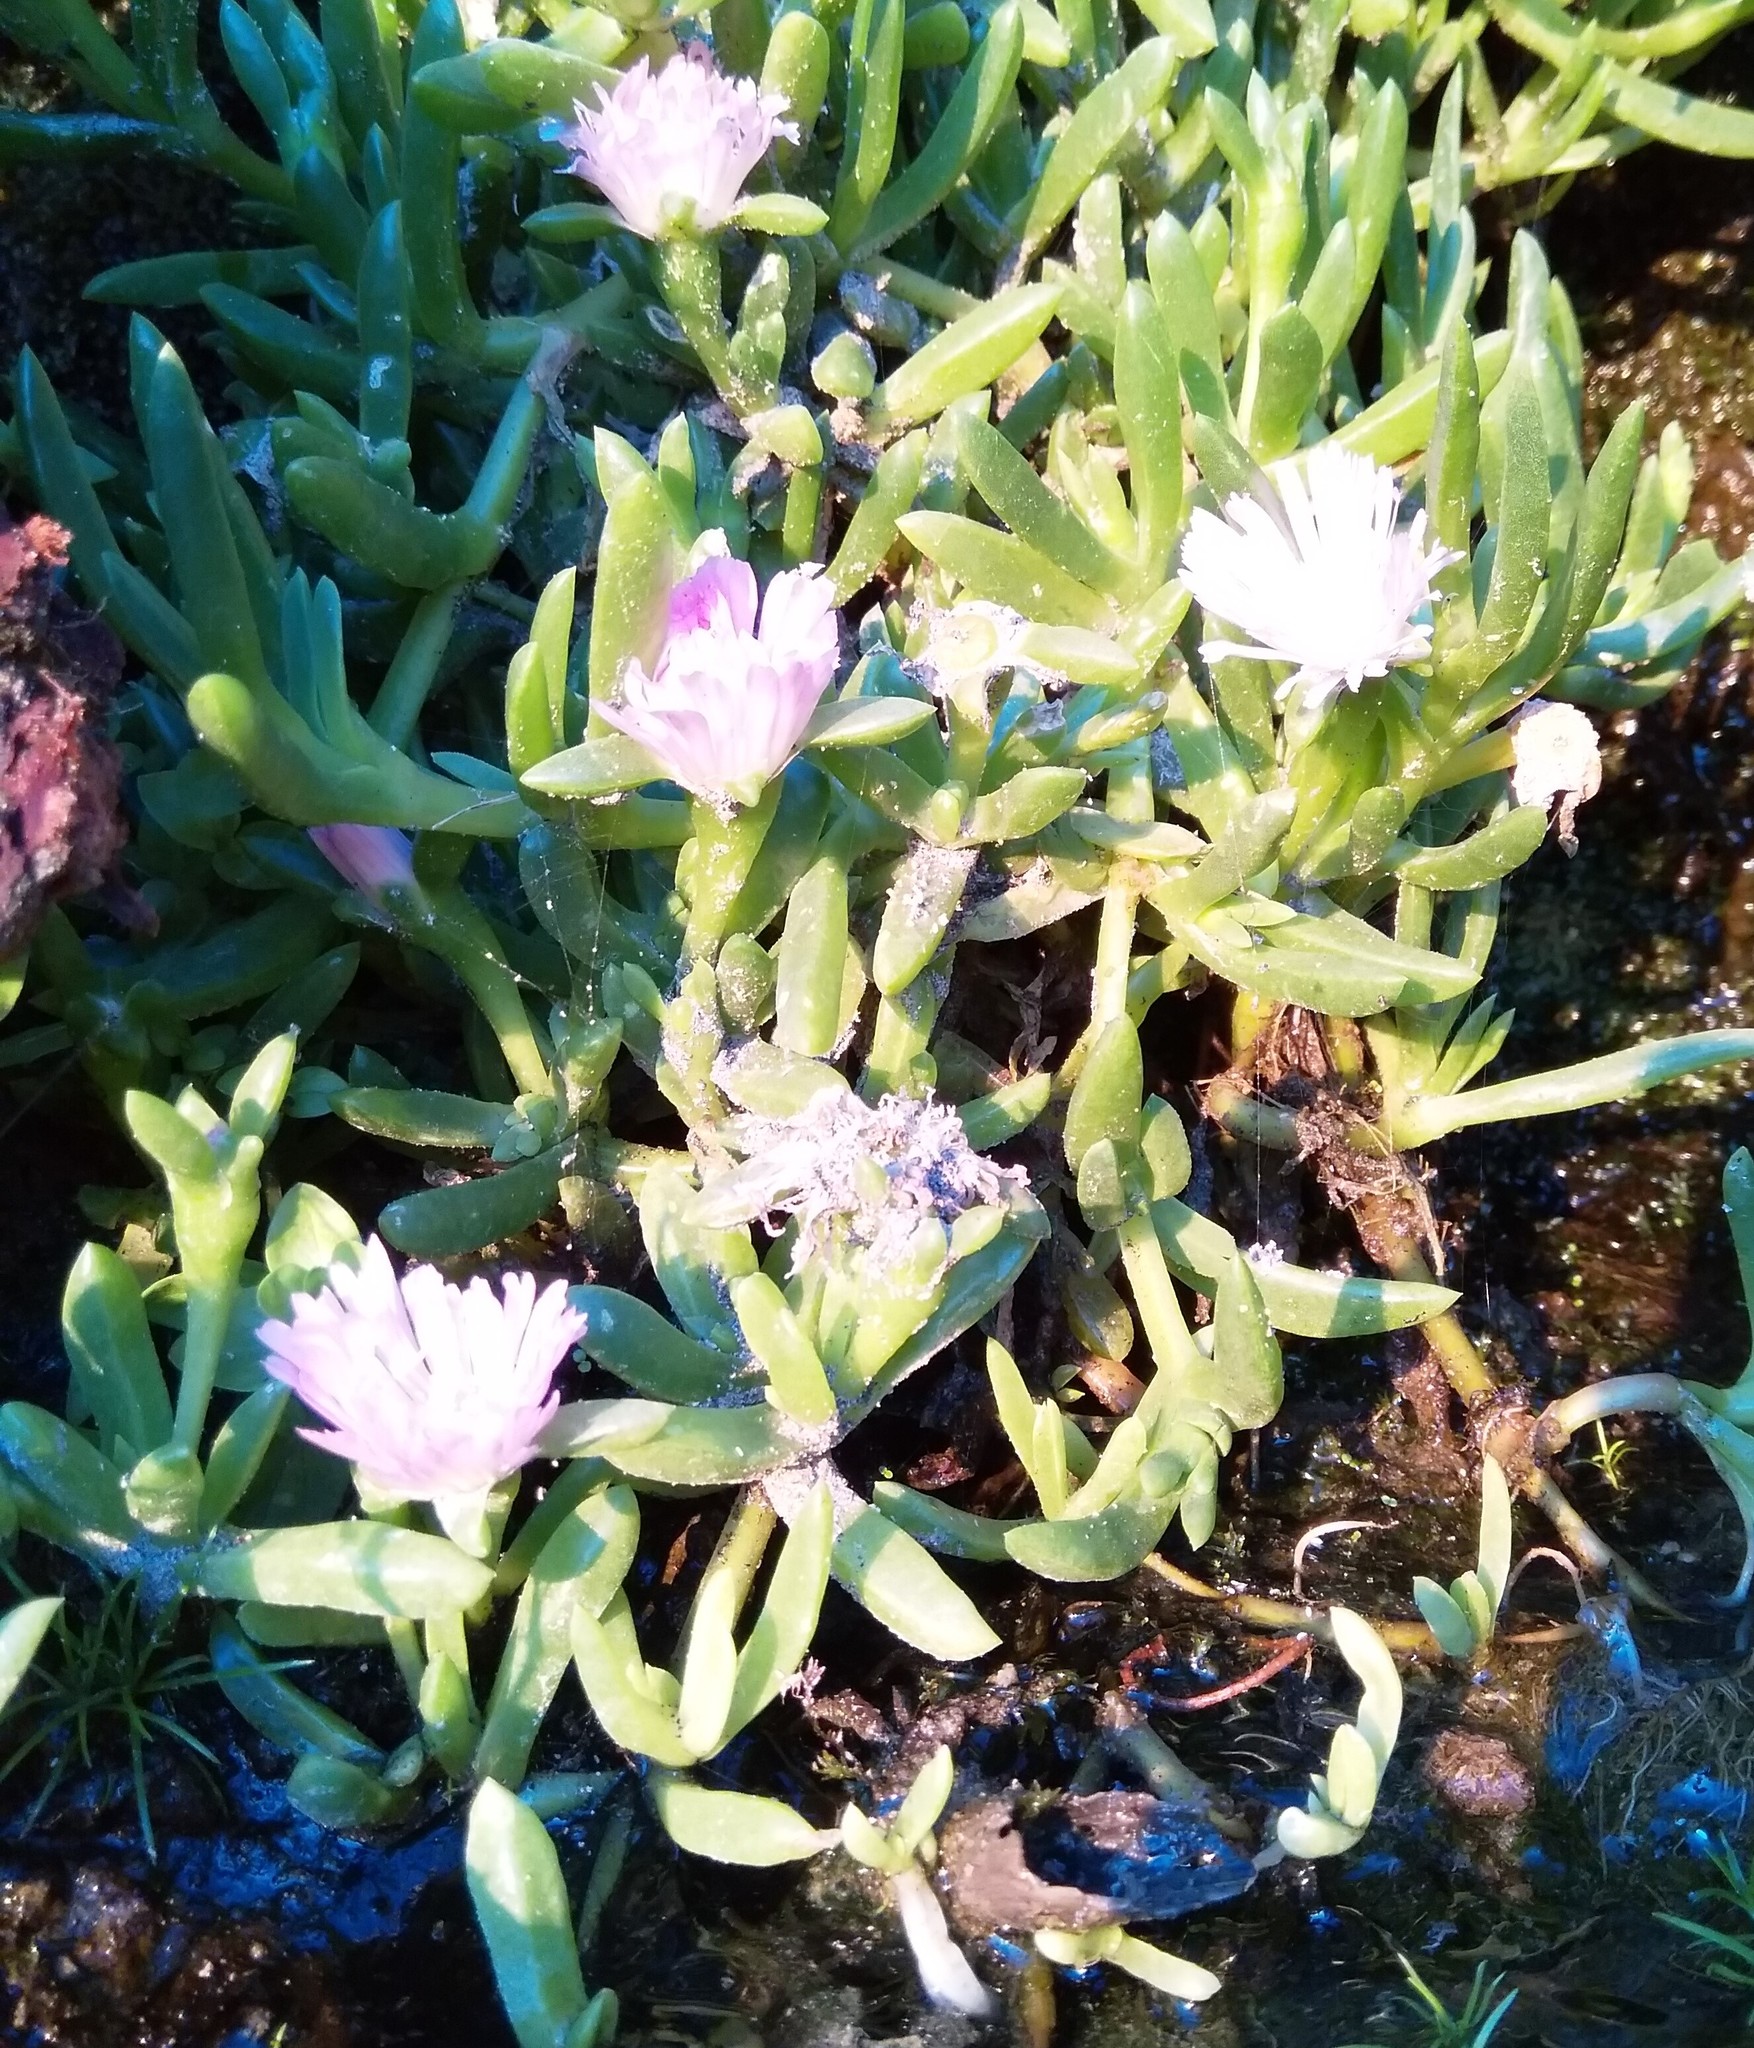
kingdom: Plantae
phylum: Tracheophyta
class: Magnoliopsida
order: Caryophyllales
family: Aizoaceae
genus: Disphyma
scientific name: Disphyma australe
